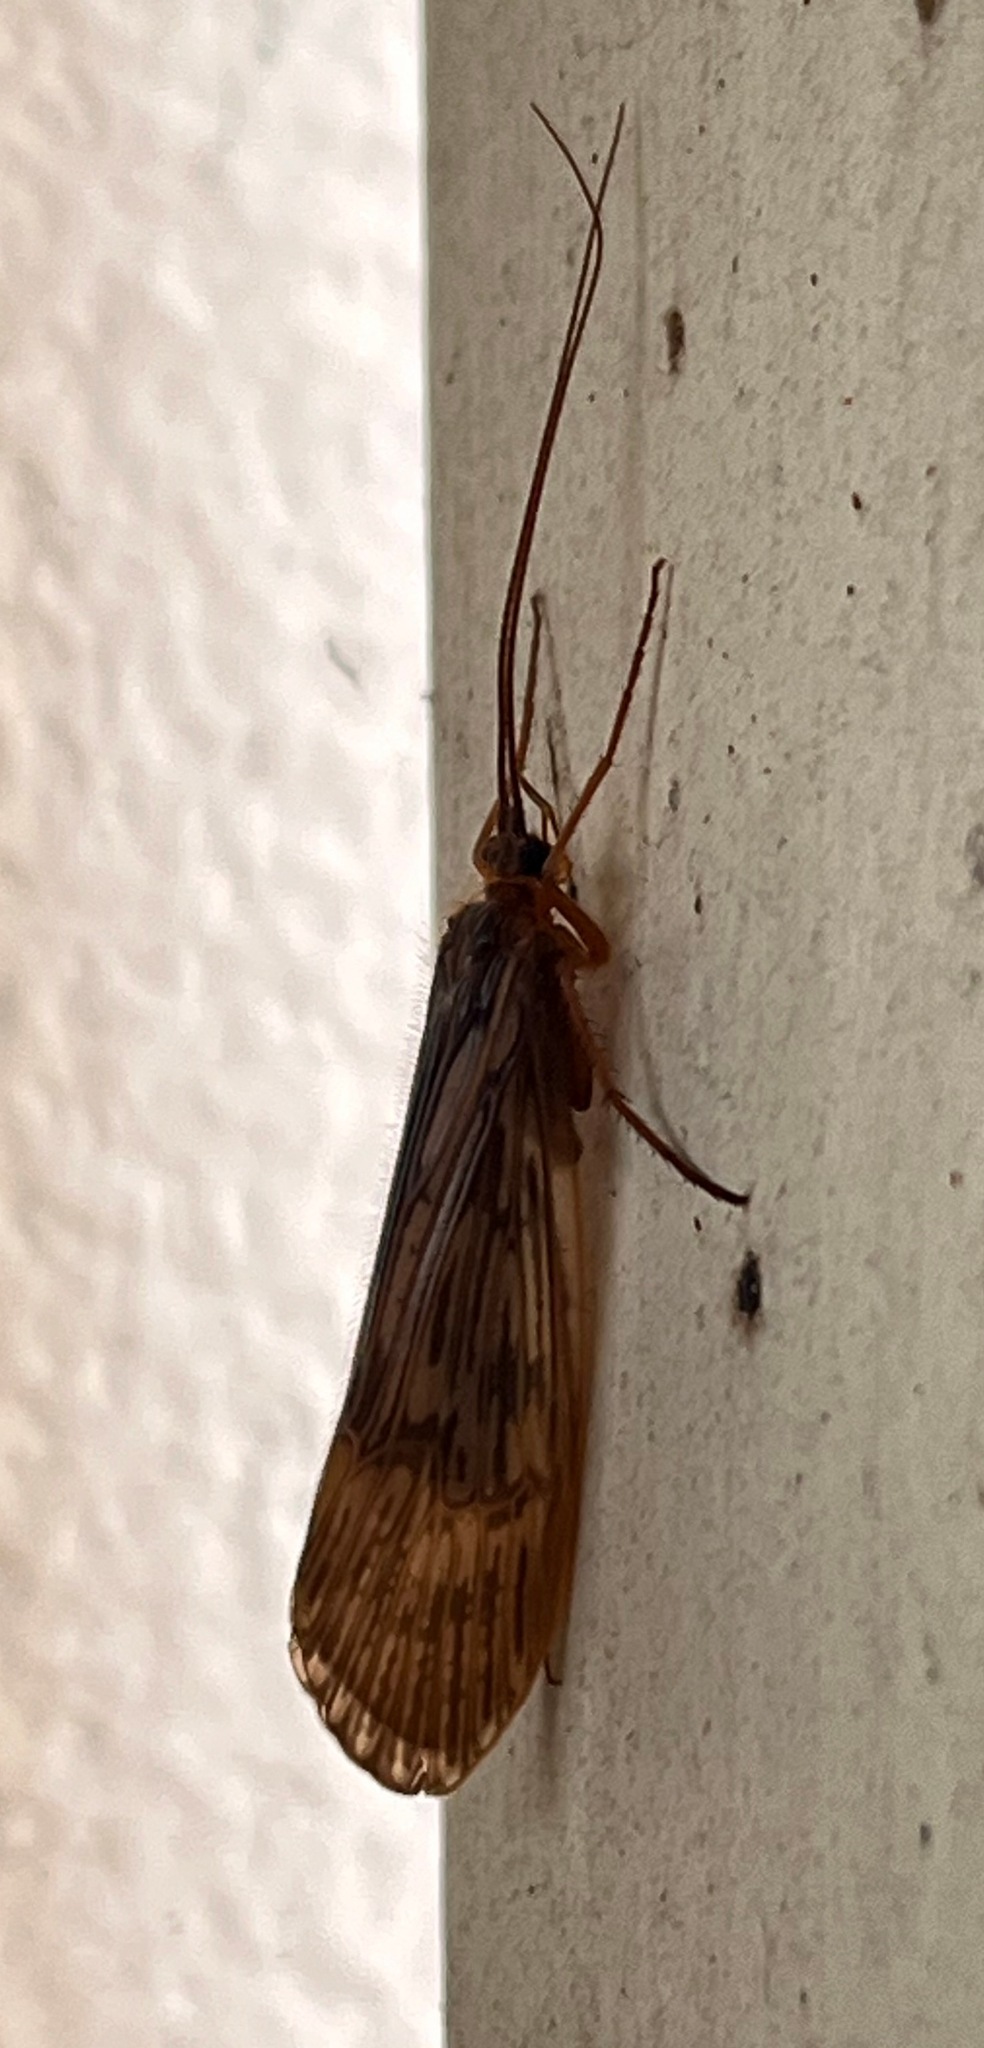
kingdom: Animalia
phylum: Arthropoda
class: Insecta
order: Trichoptera
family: Limnephilidae
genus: Halesus
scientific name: Halesus radiatus
